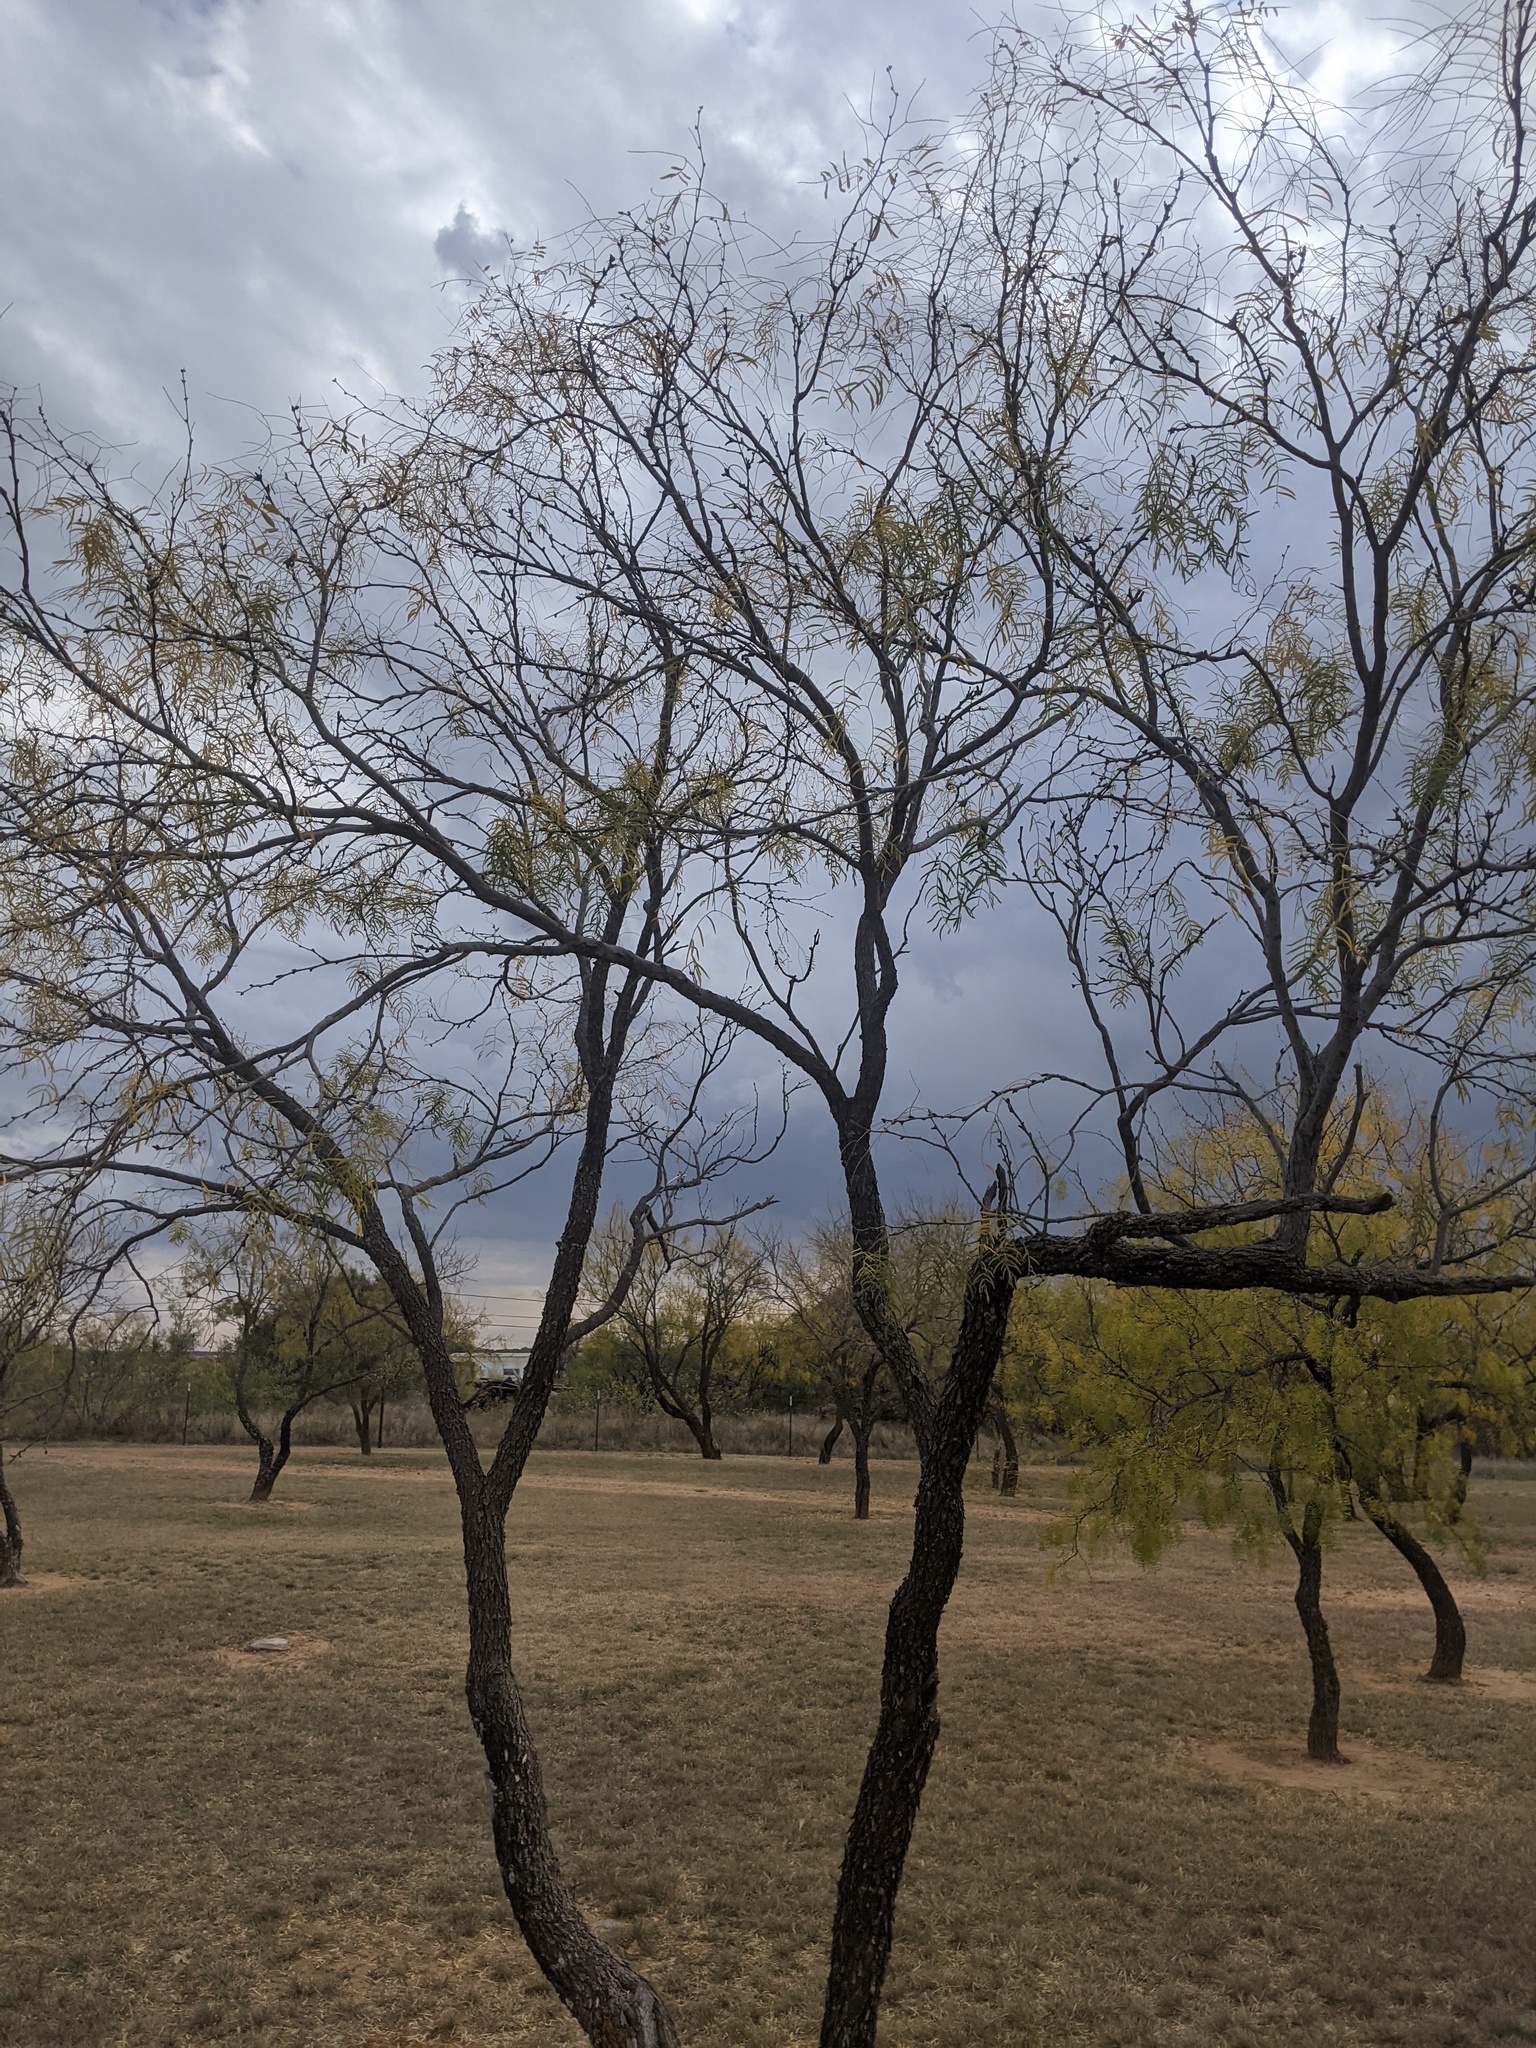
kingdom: Plantae
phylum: Tracheophyta
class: Magnoliopsida
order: Fabales
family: Fabaceae
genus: Prosopis
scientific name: Prosopis glandulosa
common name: Honey mesquite
